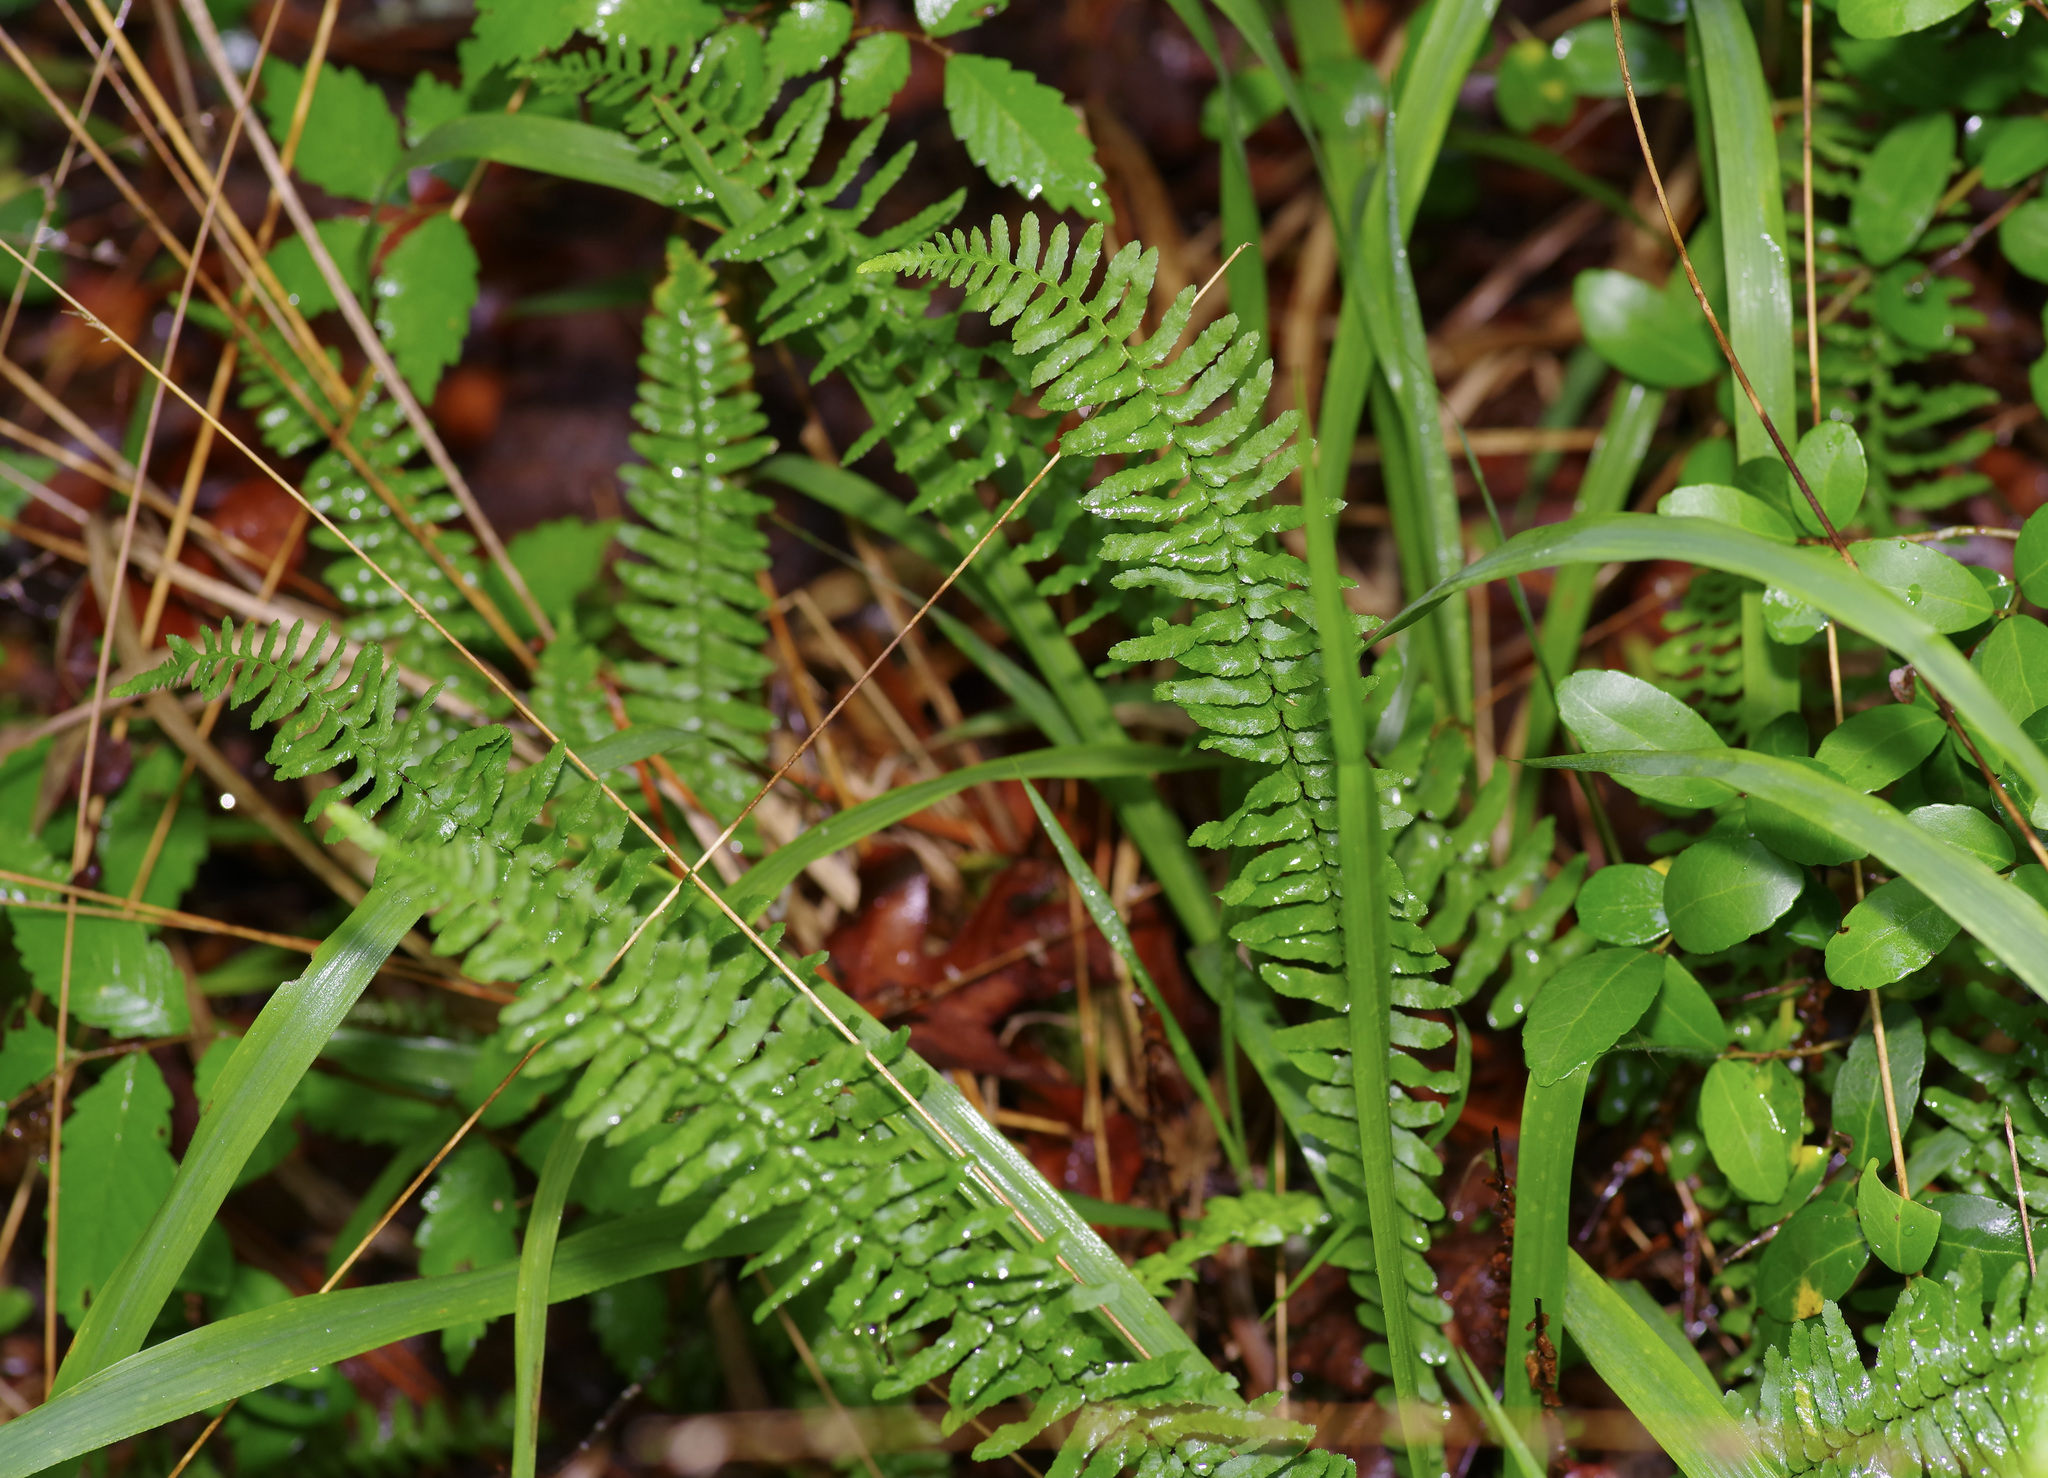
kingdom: Plantae
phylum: Tracheophyta
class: Polypodiopsida
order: Polypodiales
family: Aspleniaceae
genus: Asplenium
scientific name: Asplenium platyneuron
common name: Ebony spleenwort
